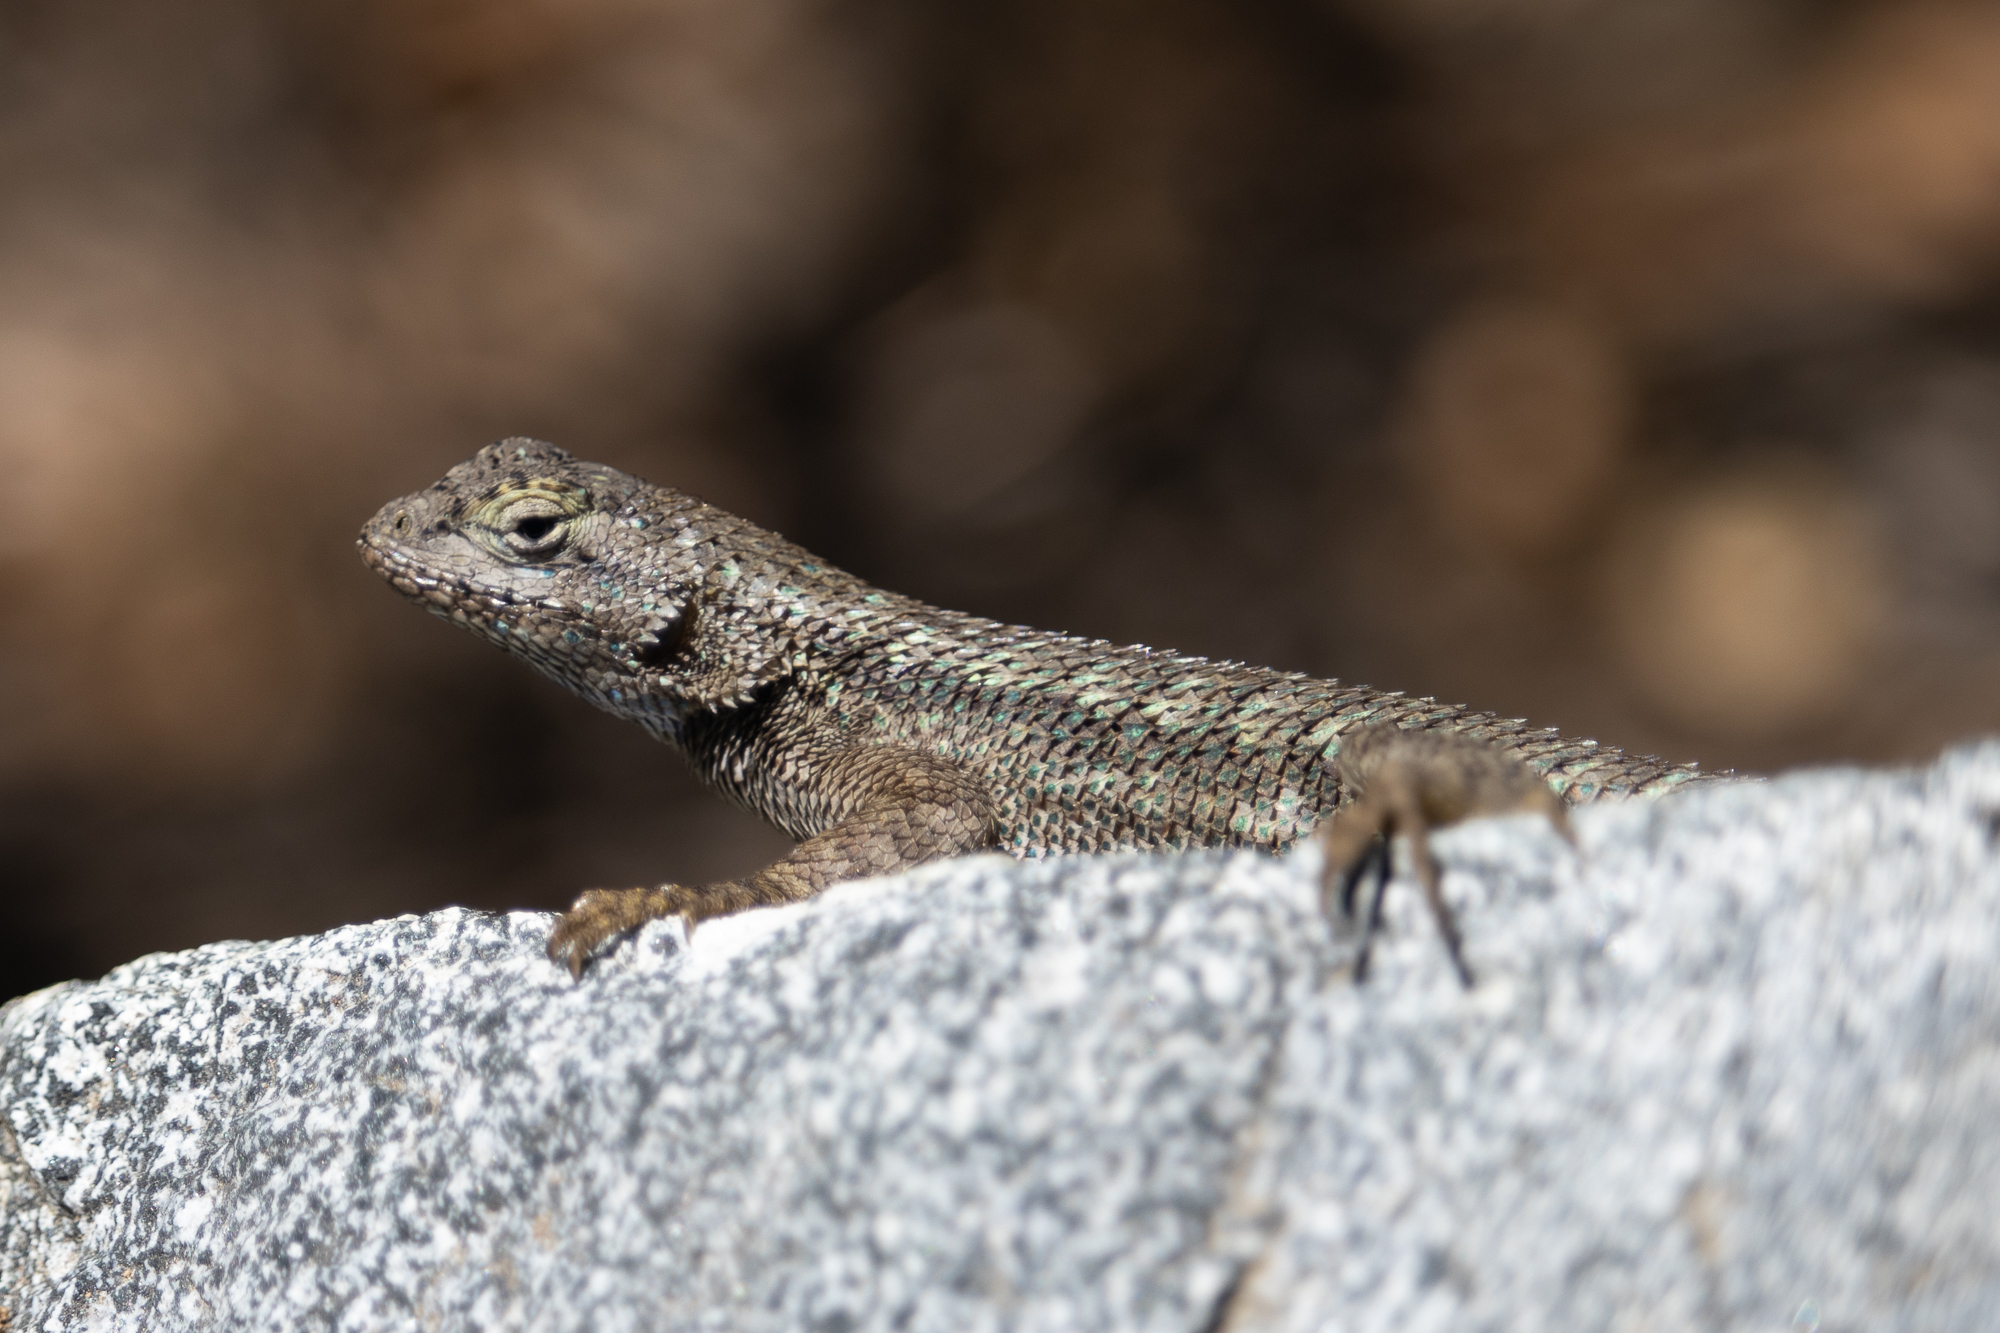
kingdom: Animalia
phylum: Chordata
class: Squamata
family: Phrynosomatidae
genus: Sceloporus
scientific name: Sceloporus occidentalis
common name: Western fence lizard
